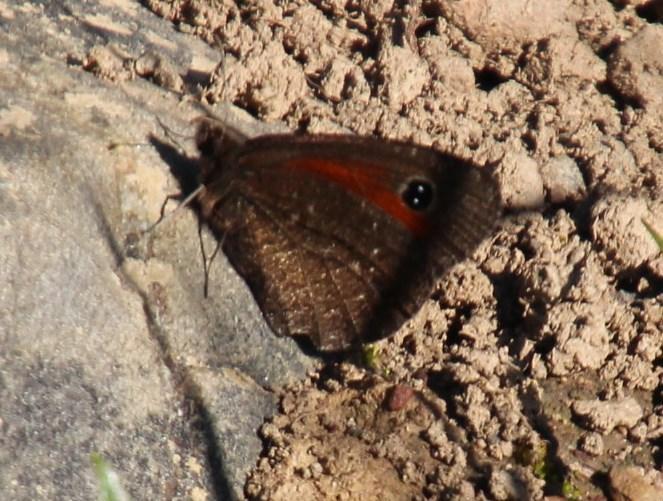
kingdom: Animalia
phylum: Arthropoda
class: Insecta
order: Lepidoptera
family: Nymphalidae
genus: Erebia
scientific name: Erebia
